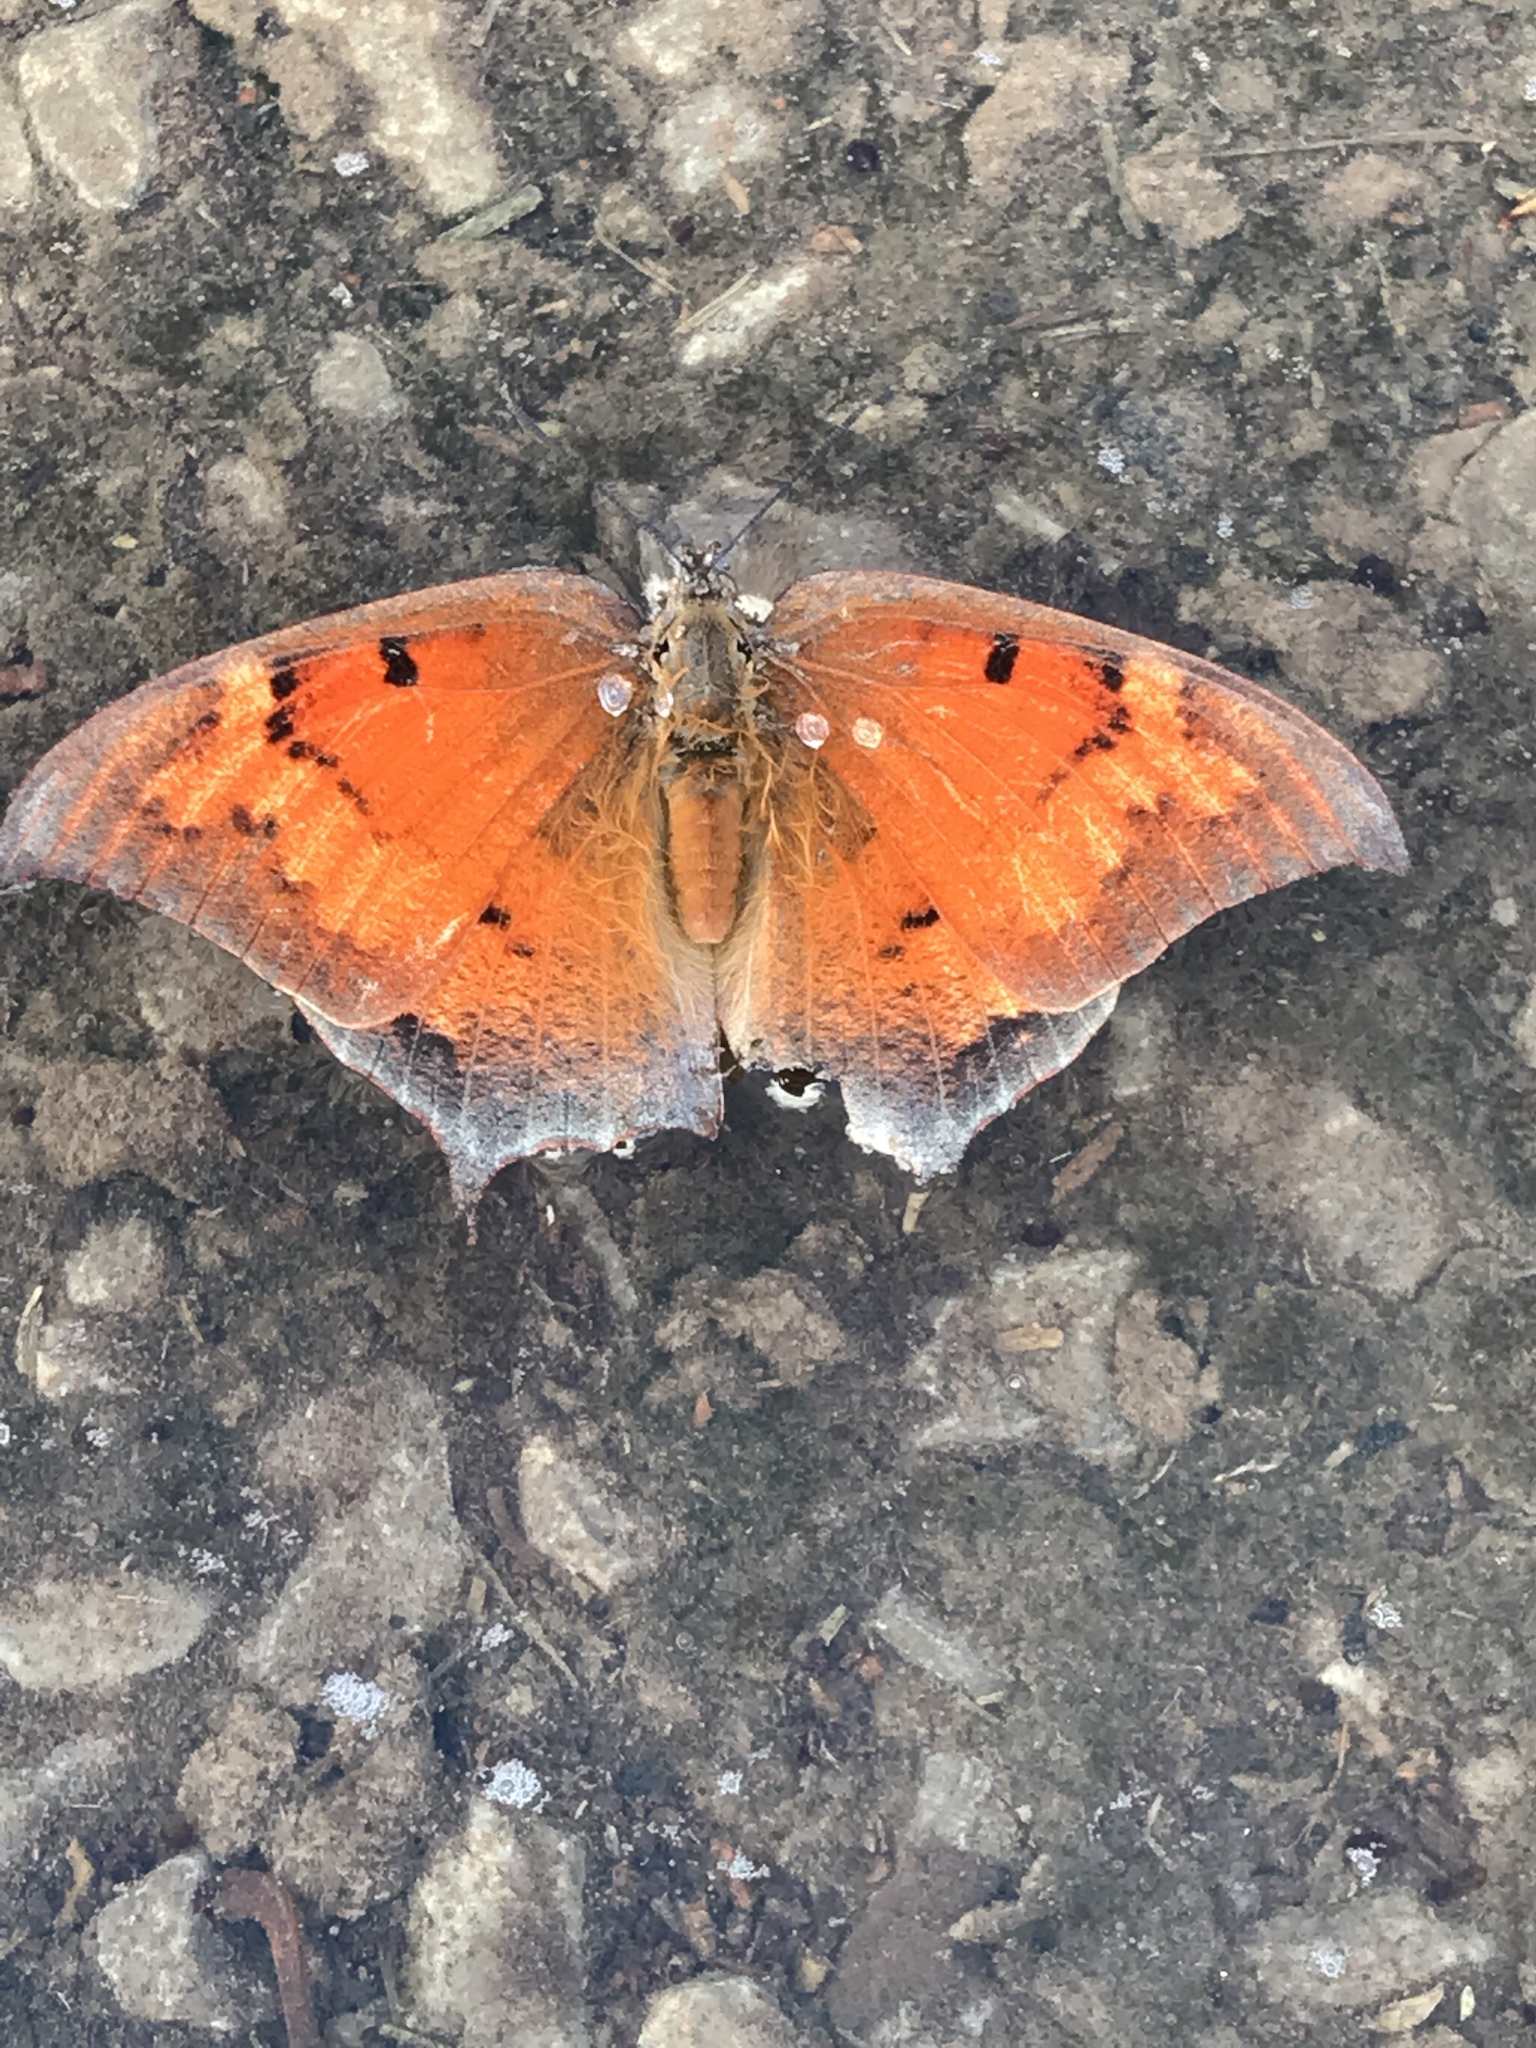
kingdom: Animalia
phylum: Arthropoda
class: Insecta
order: Lepidoptera
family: Nymphalidae
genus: Anaea
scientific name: Anaea andria
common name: Goatweed leafwing
